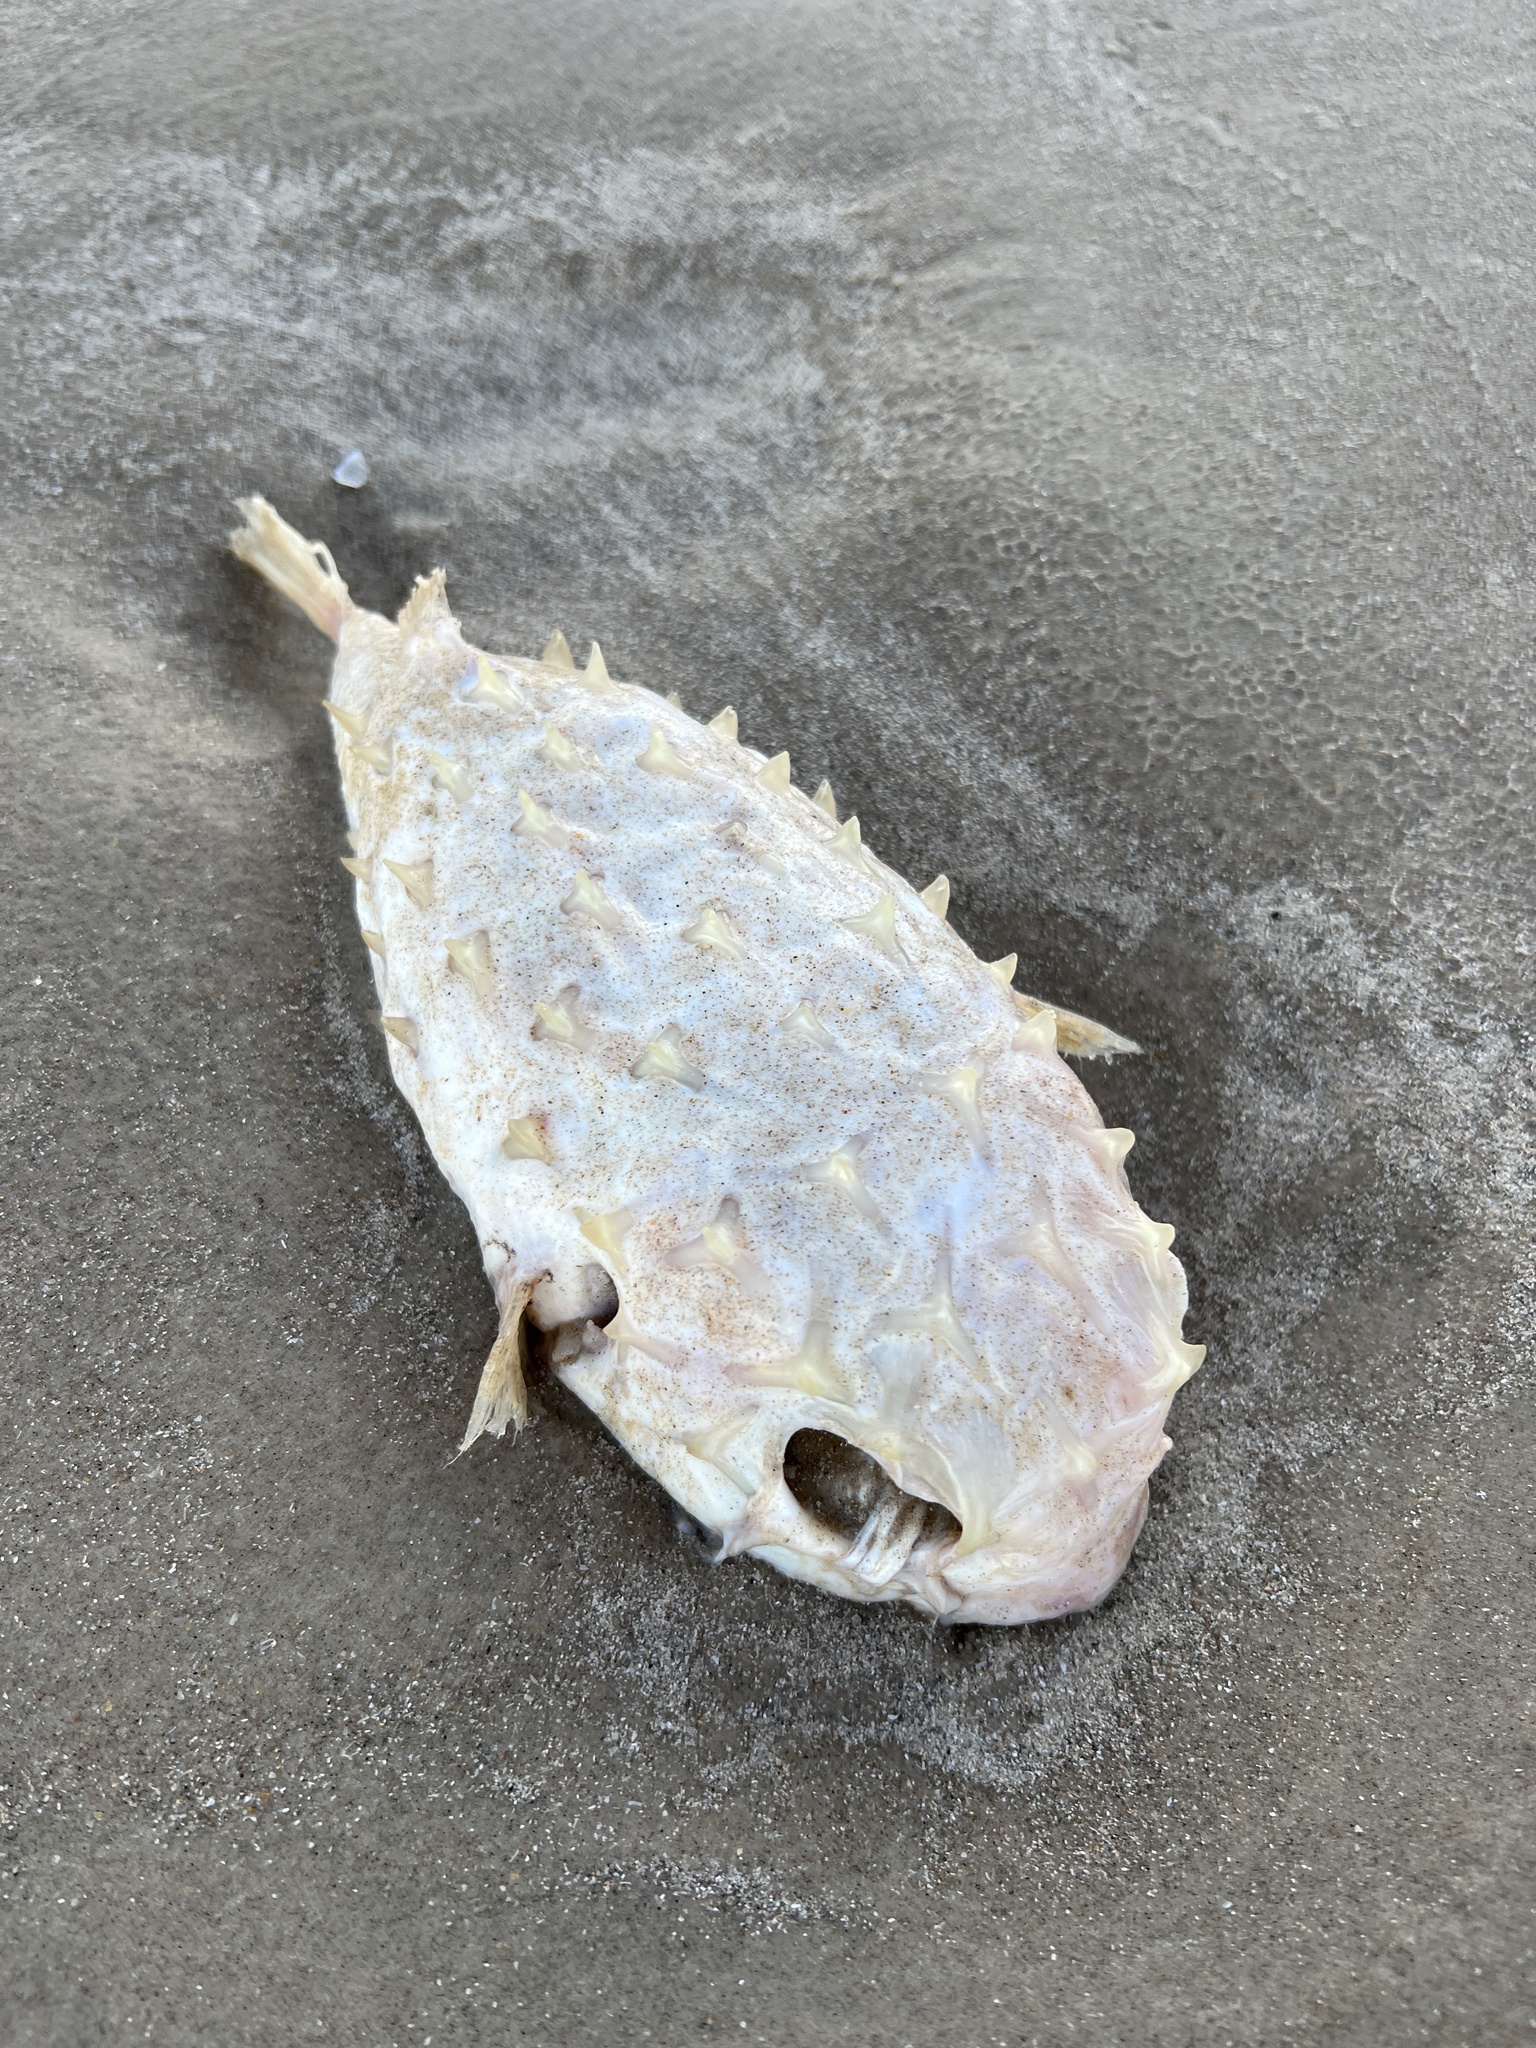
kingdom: Animalia
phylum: Chordata
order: Tetraodontiformes
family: Diodontidae
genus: Chilomycterus
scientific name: Chilomycterus schoepfii
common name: Striped burrfish
